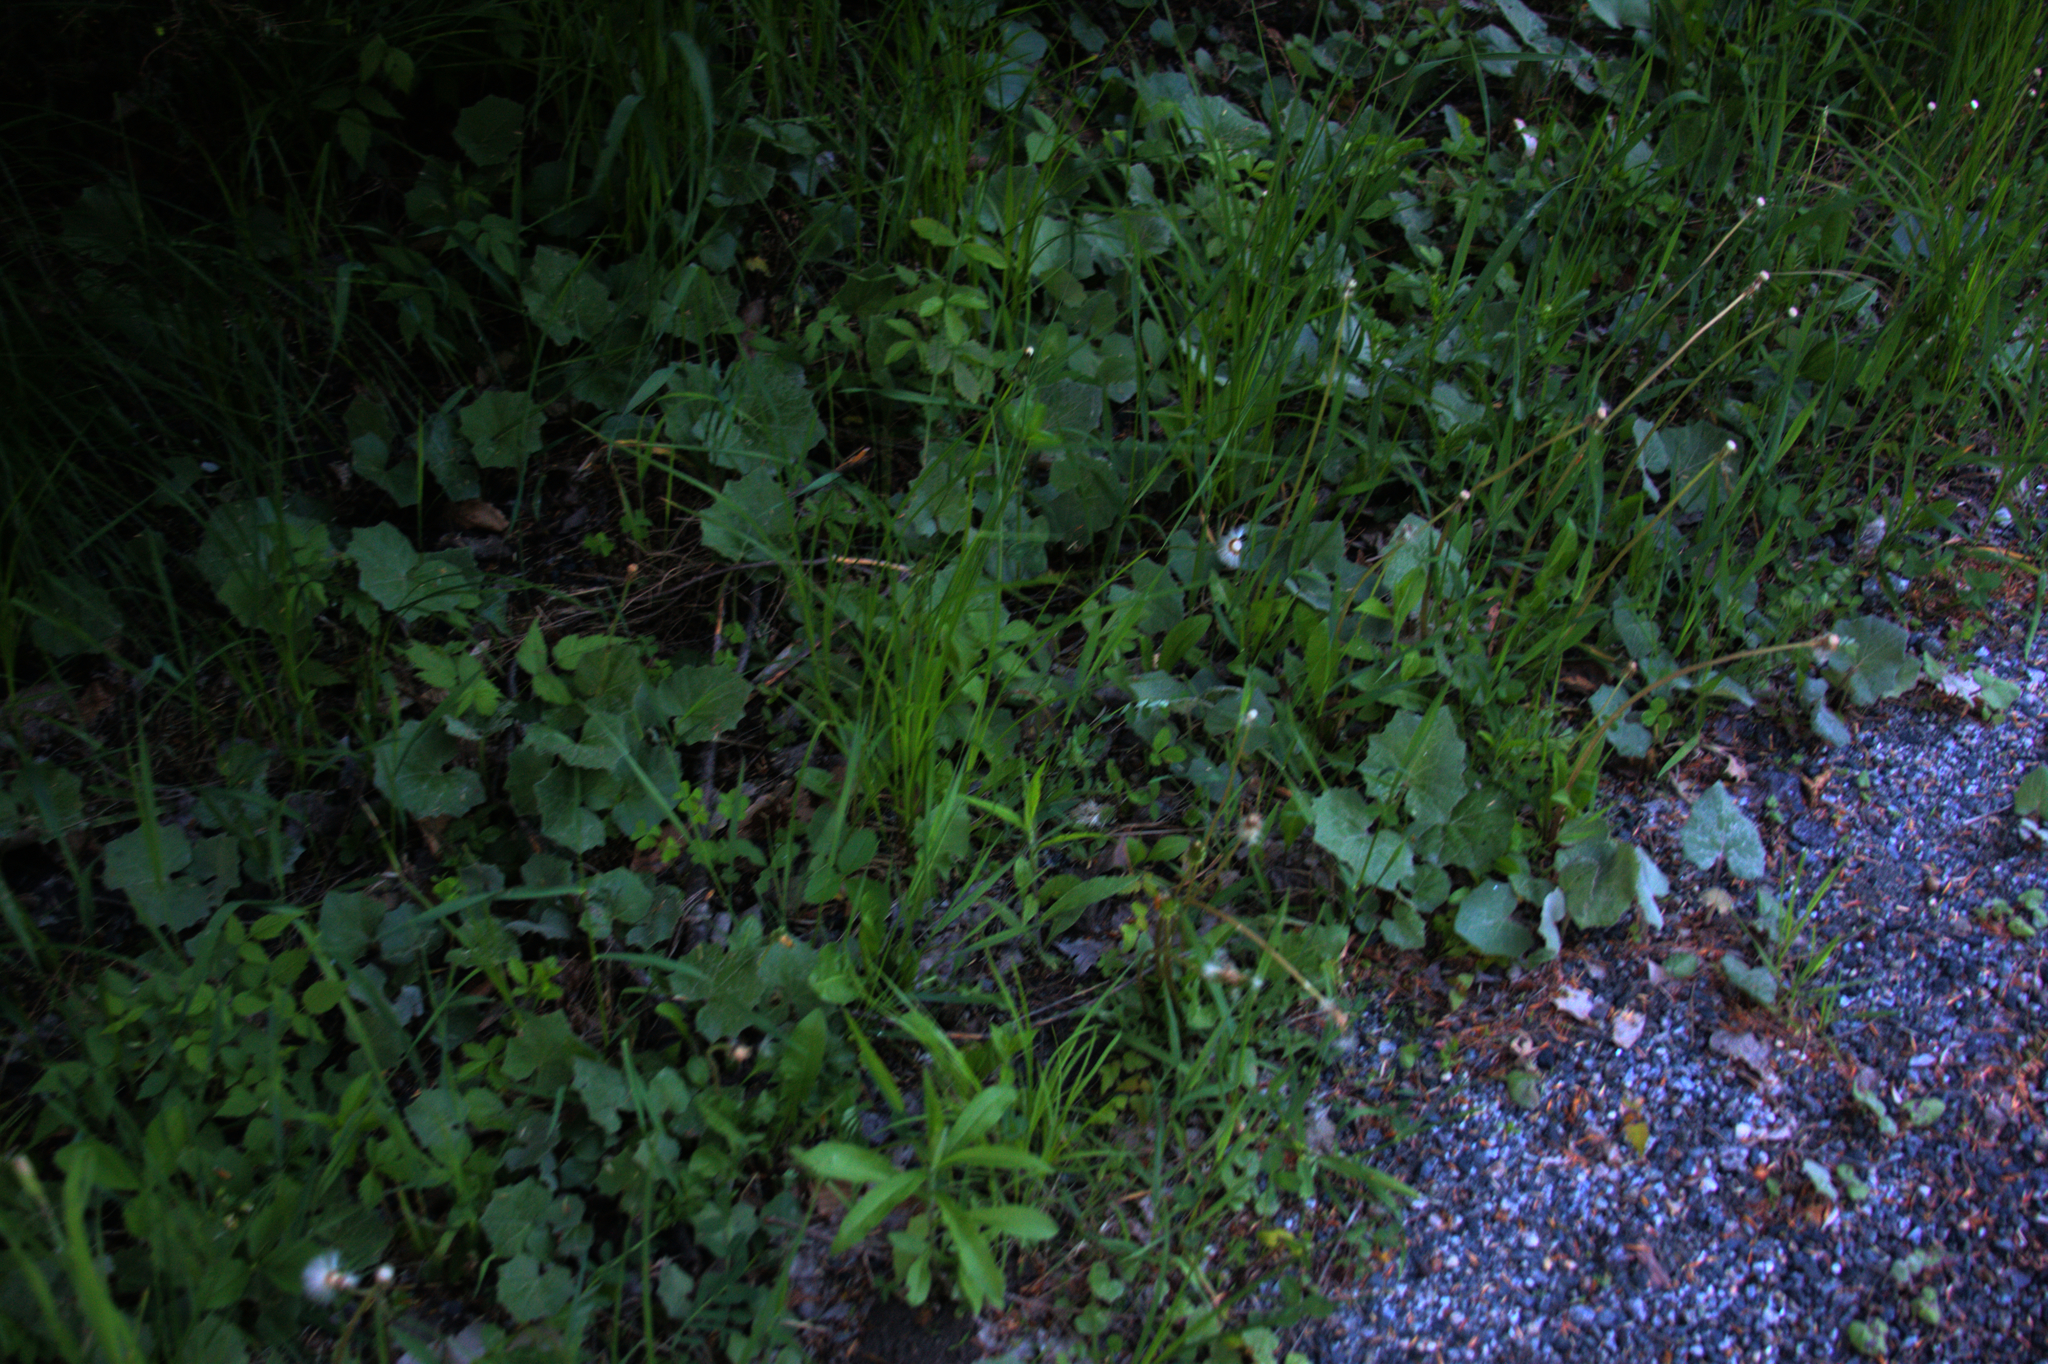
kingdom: Plantae
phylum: Tracheophyta
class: Magnoliopsida
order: Asterales
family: Asteraceae
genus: Tussilago
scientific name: Tussilago farfara
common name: Coltsfoot
